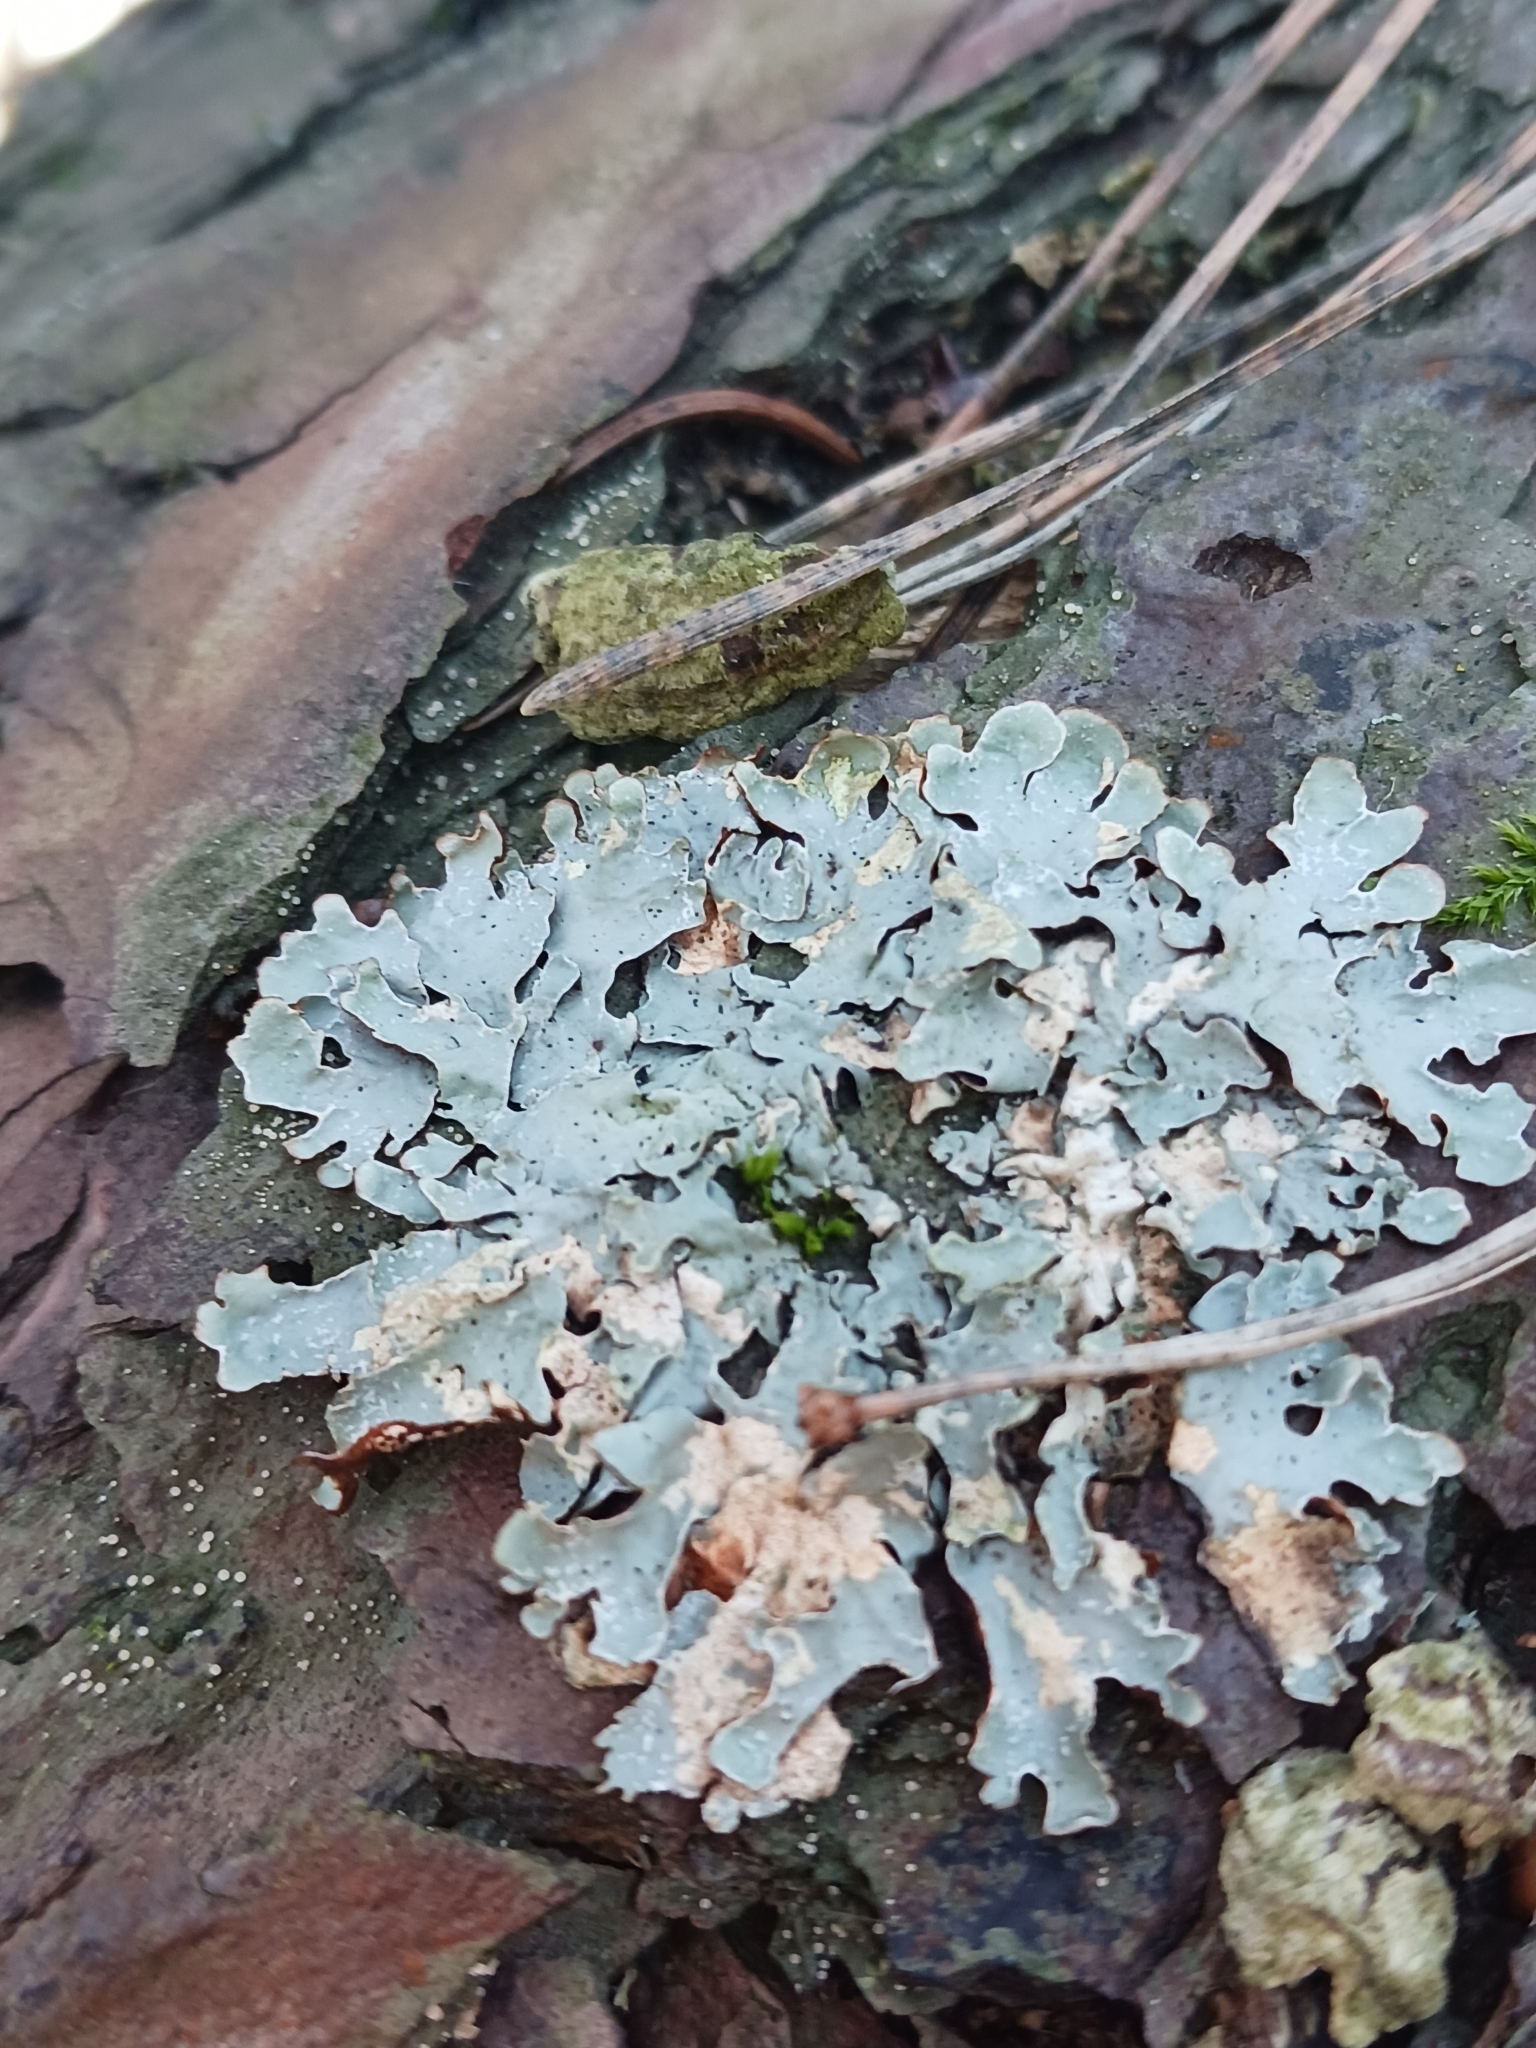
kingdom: Fungi
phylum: Ascomycota
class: Lecanoromycetes
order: Lecanorales
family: Parmeliaceae
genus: Parmelia
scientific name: Parmelia sulcata
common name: Netted shield lichen
